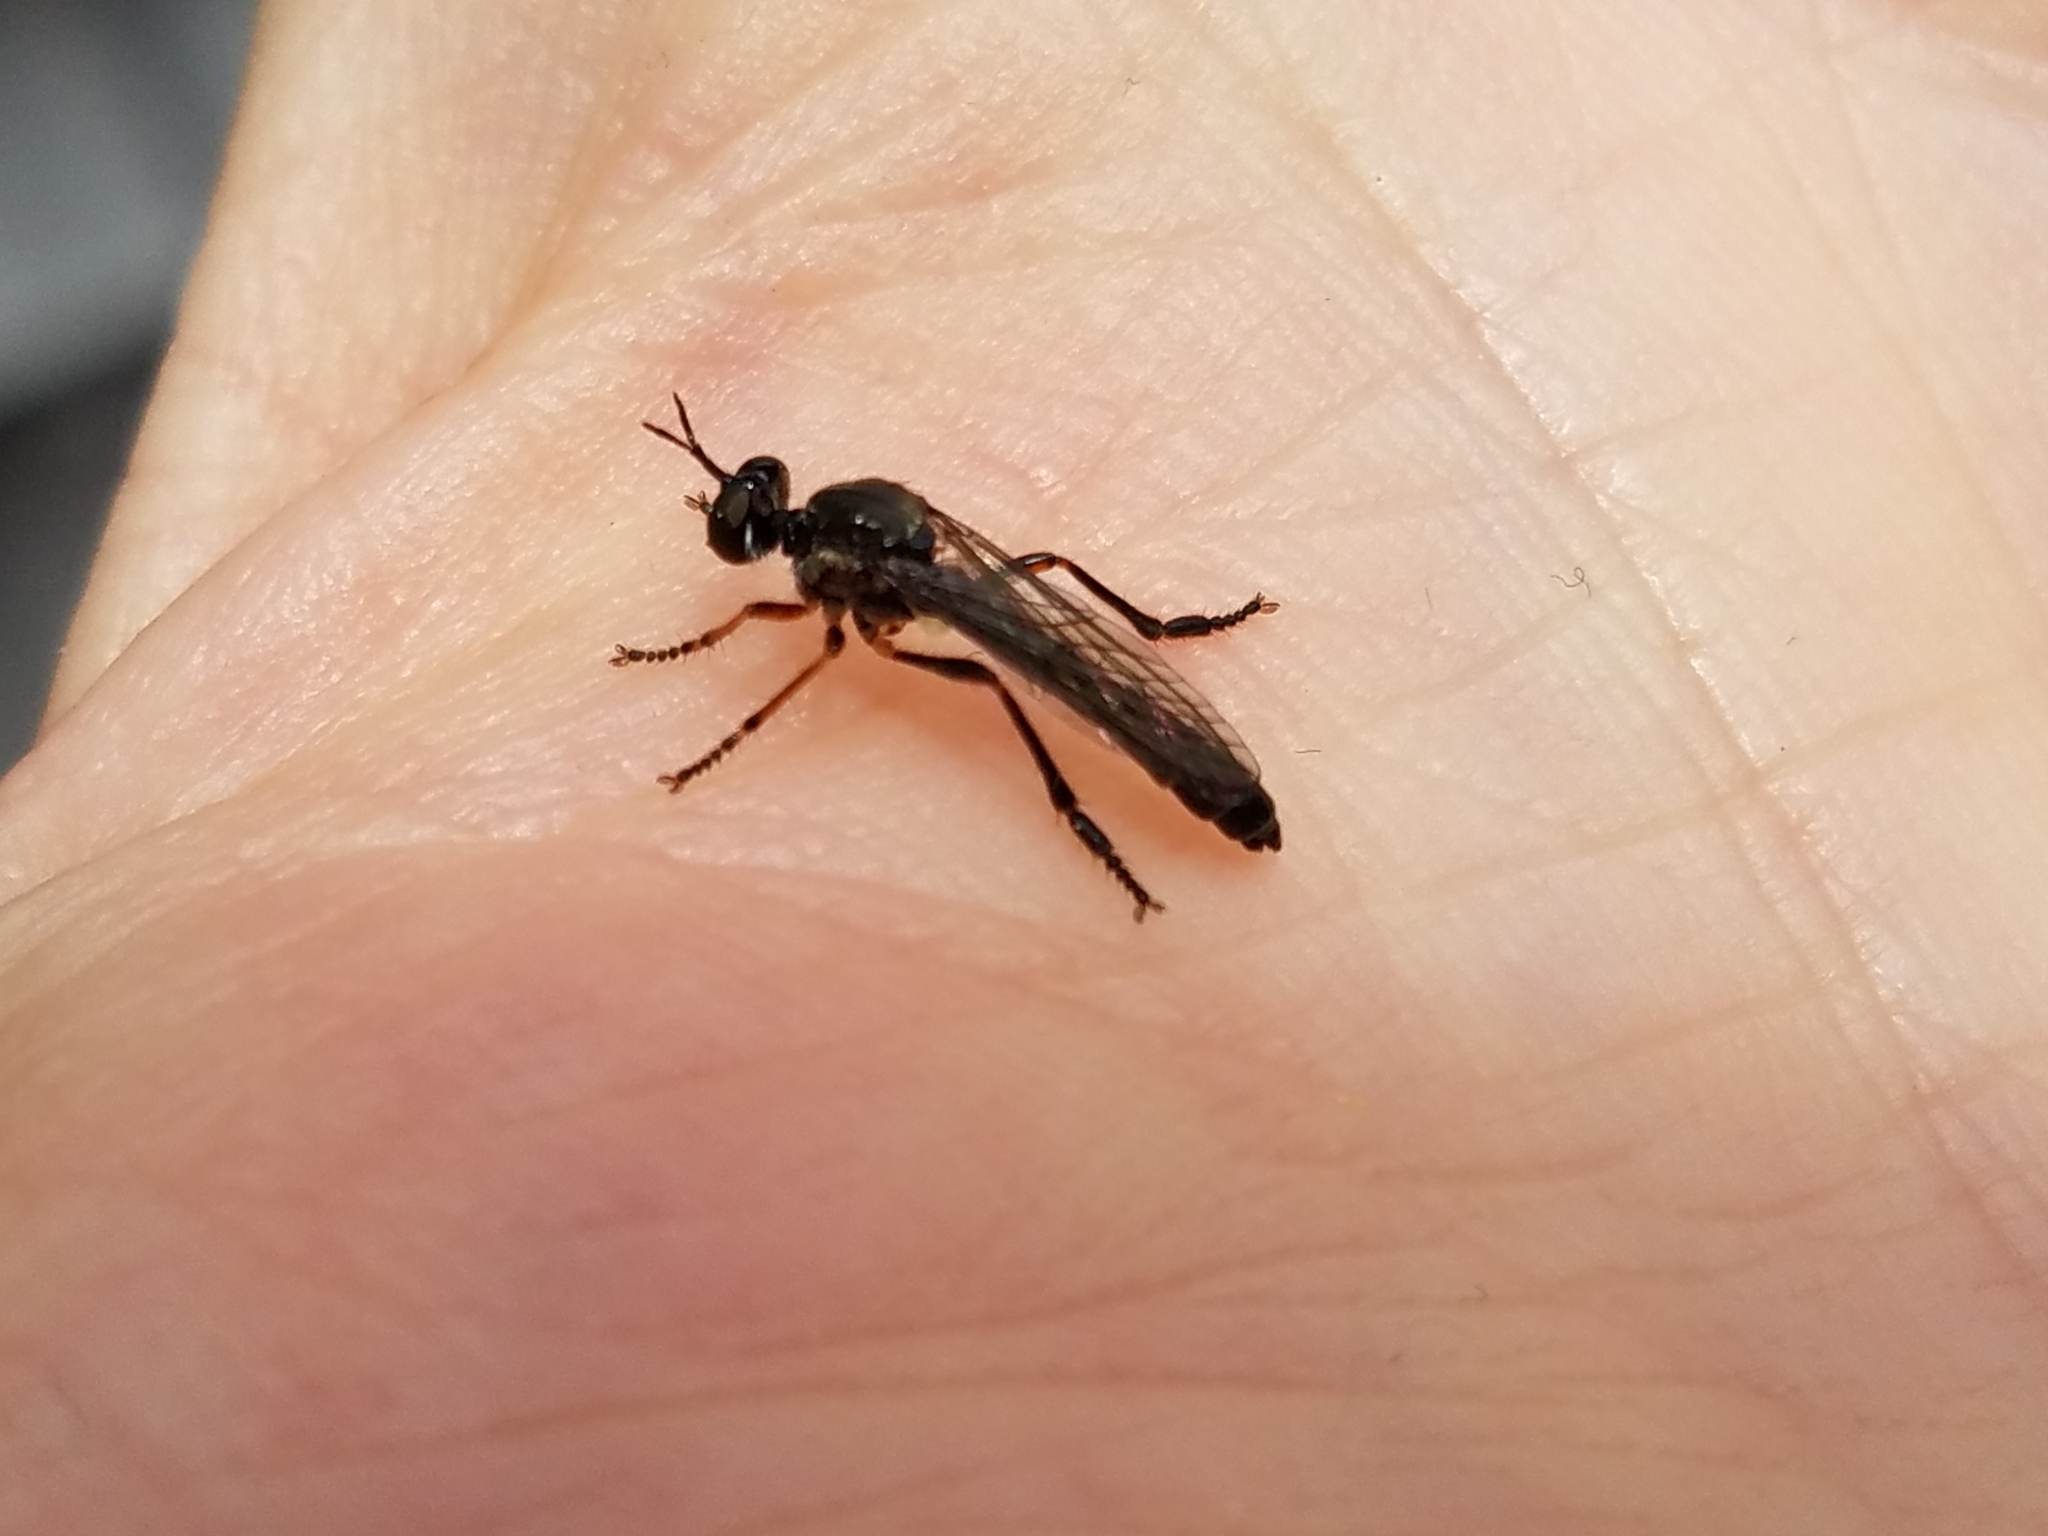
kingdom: Animalia
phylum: Arthropoda
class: Insecta
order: Diptera
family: Asilidae
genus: Dioctria
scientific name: Dioctria hyalipennis
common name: Stripe-legged robberfly
